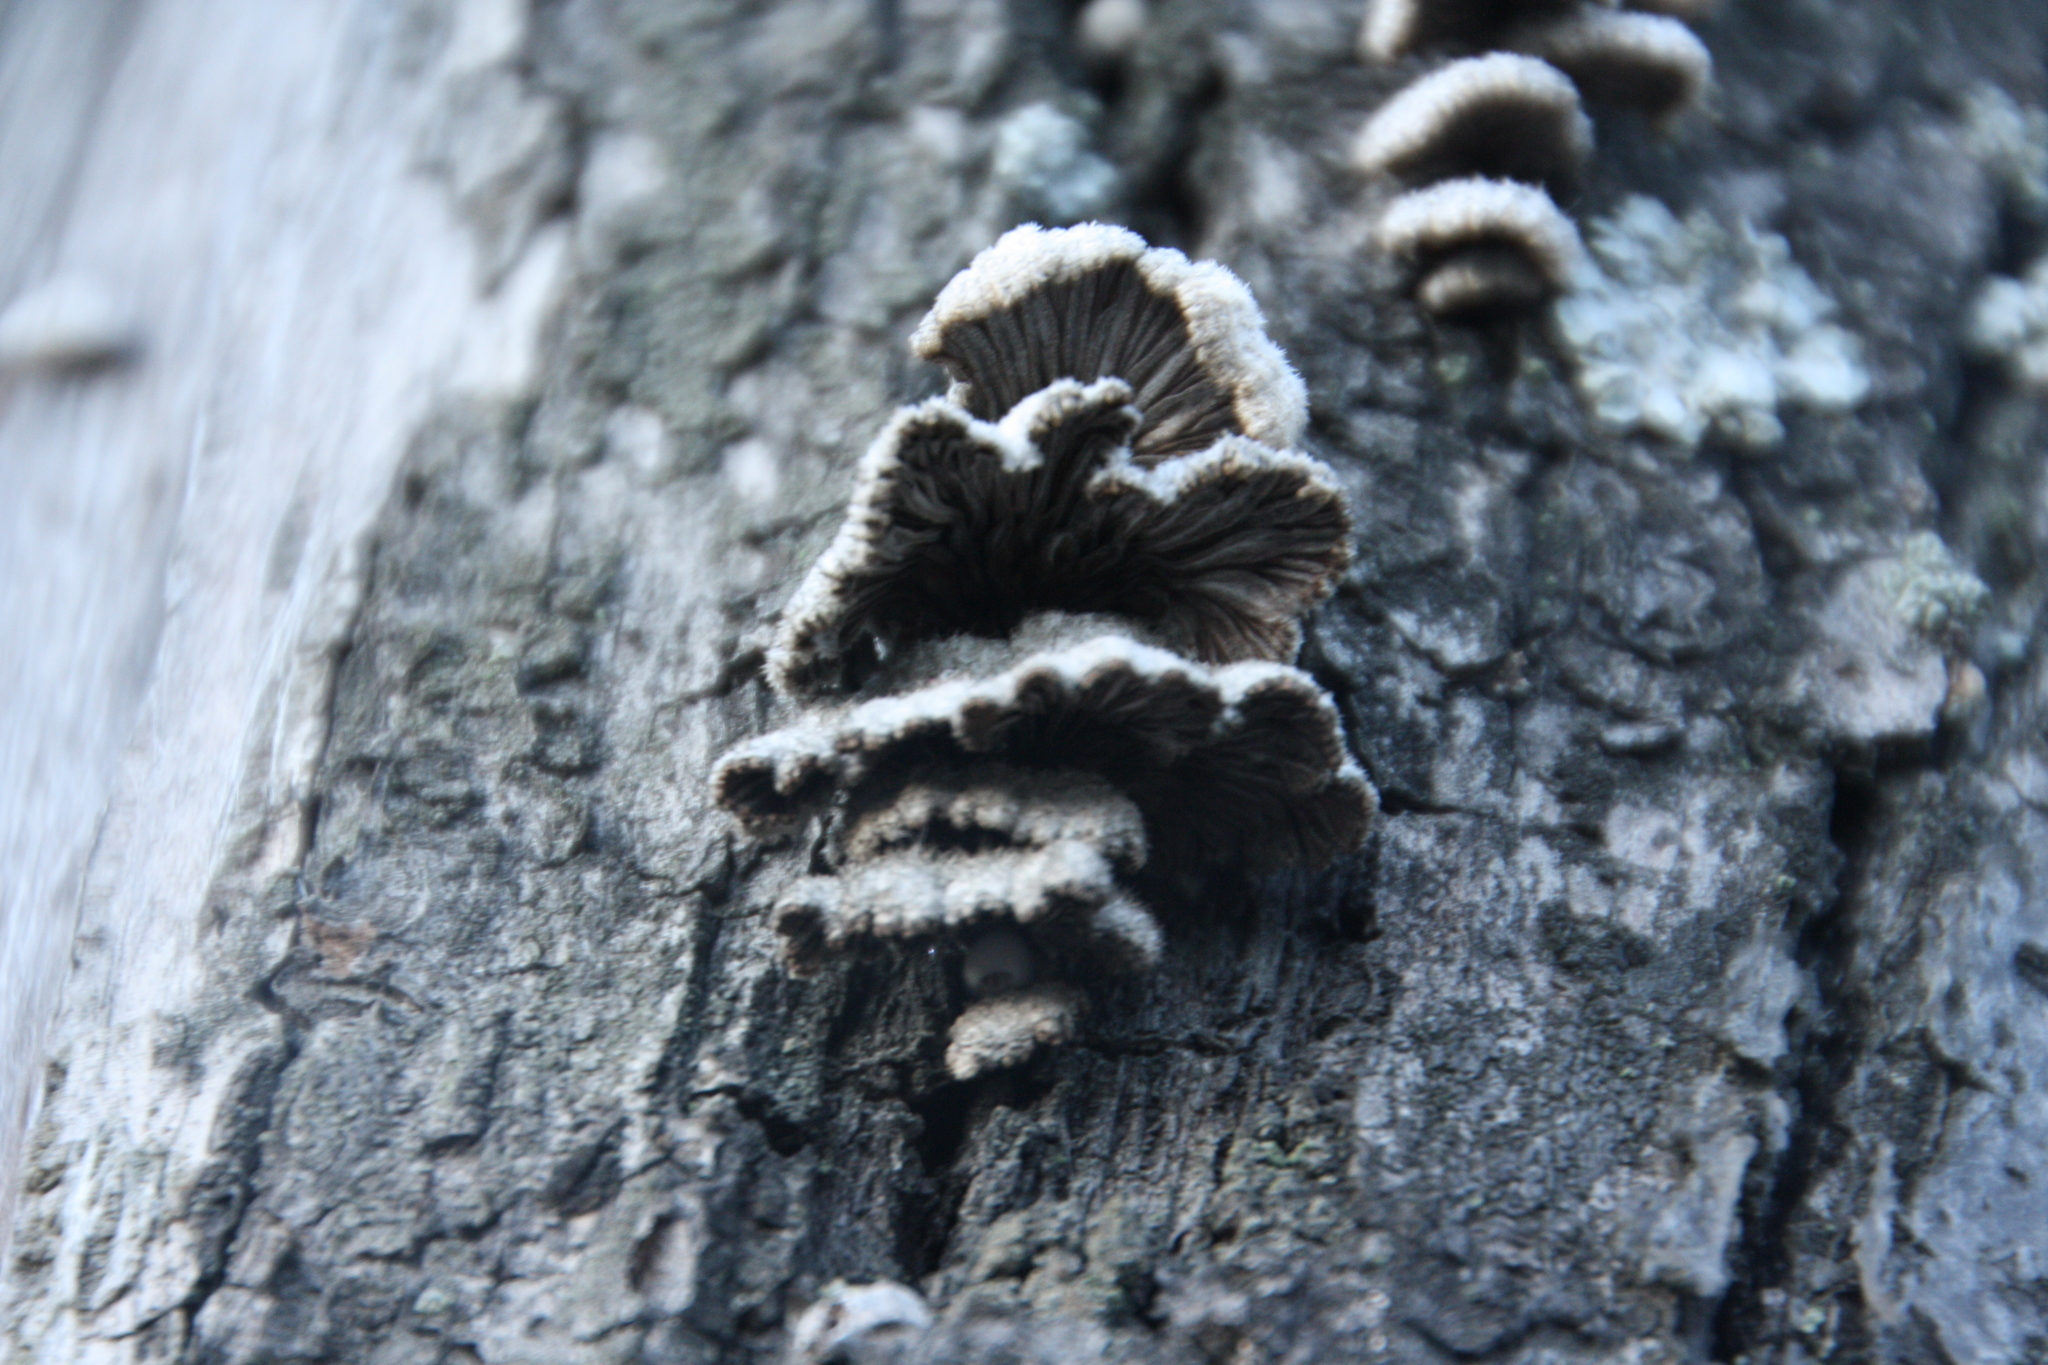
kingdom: Fungi
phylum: Basidiomycota
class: Agaricomycetes
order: Agaricales
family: Schizophyllaceae
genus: Schizophyllum
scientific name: Schizophyllum commune
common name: Common porecrust
